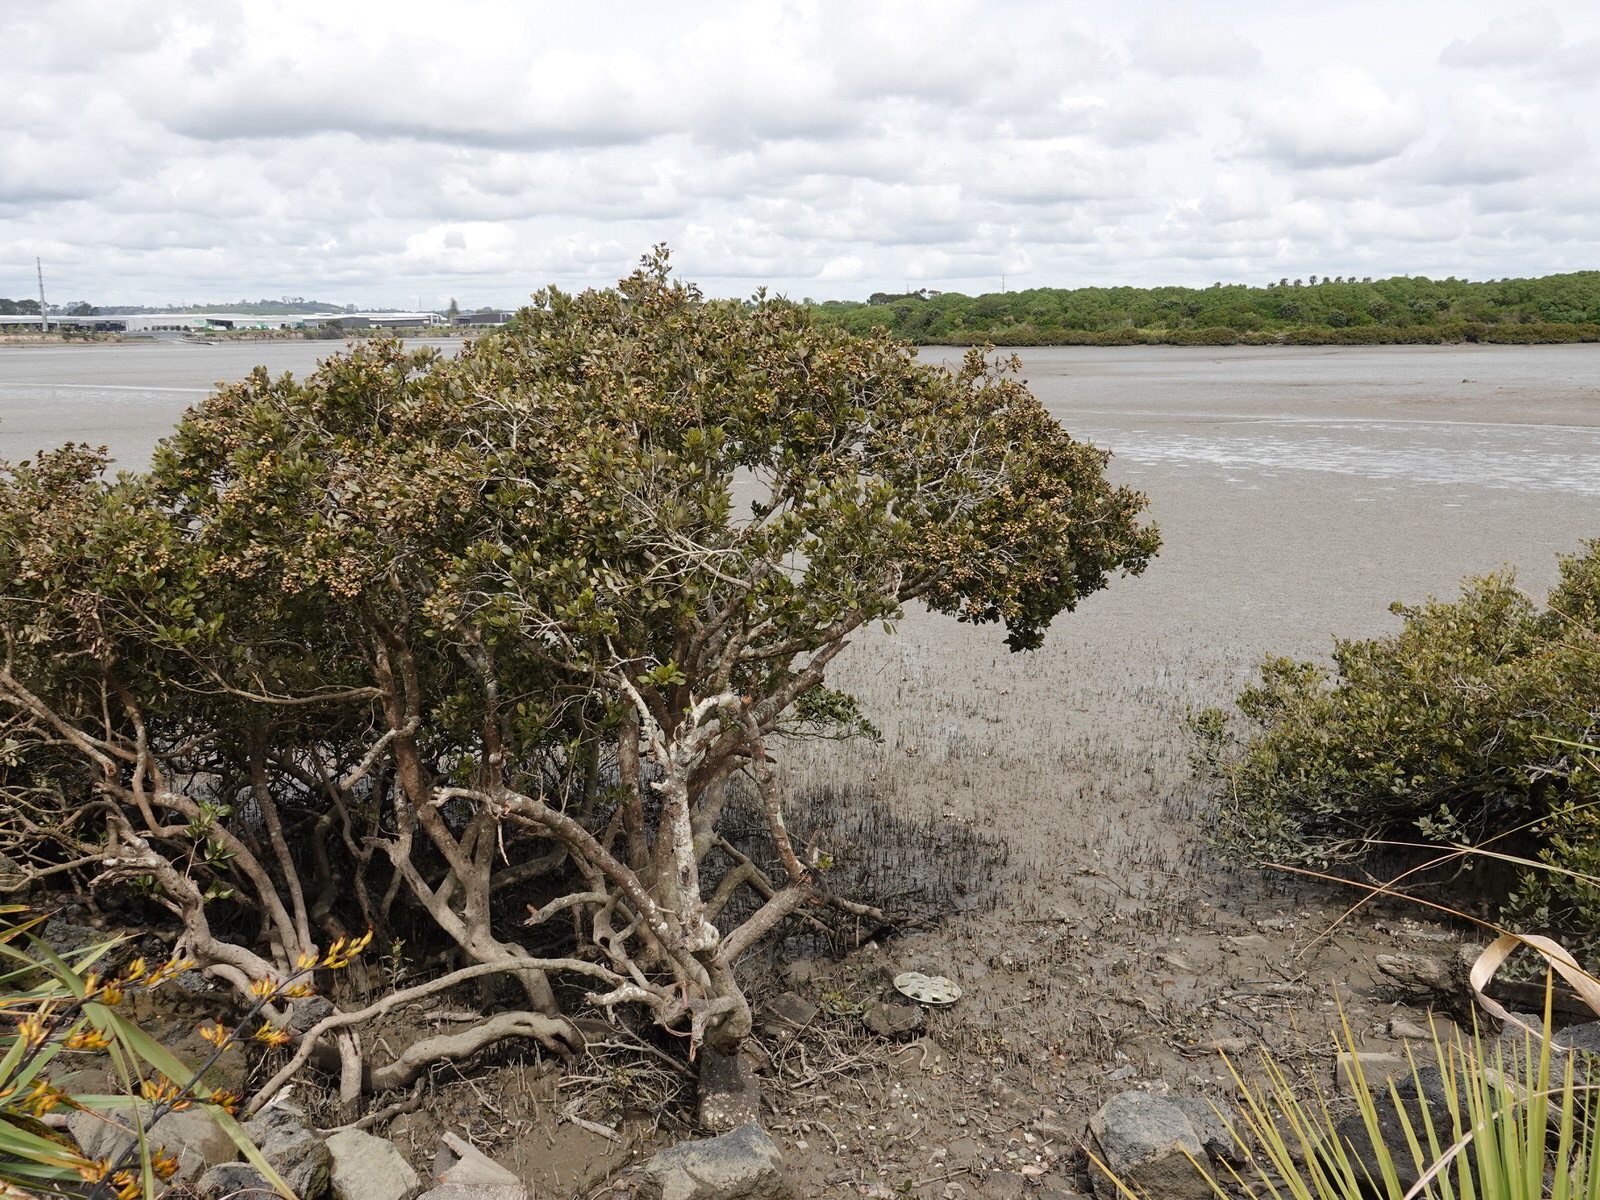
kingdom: Plantae
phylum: Tracheophyta
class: Magnoliopsida
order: Lamiales
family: Acanthaceae
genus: Avicennia
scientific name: Avicennia marina
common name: Gray mangrove
